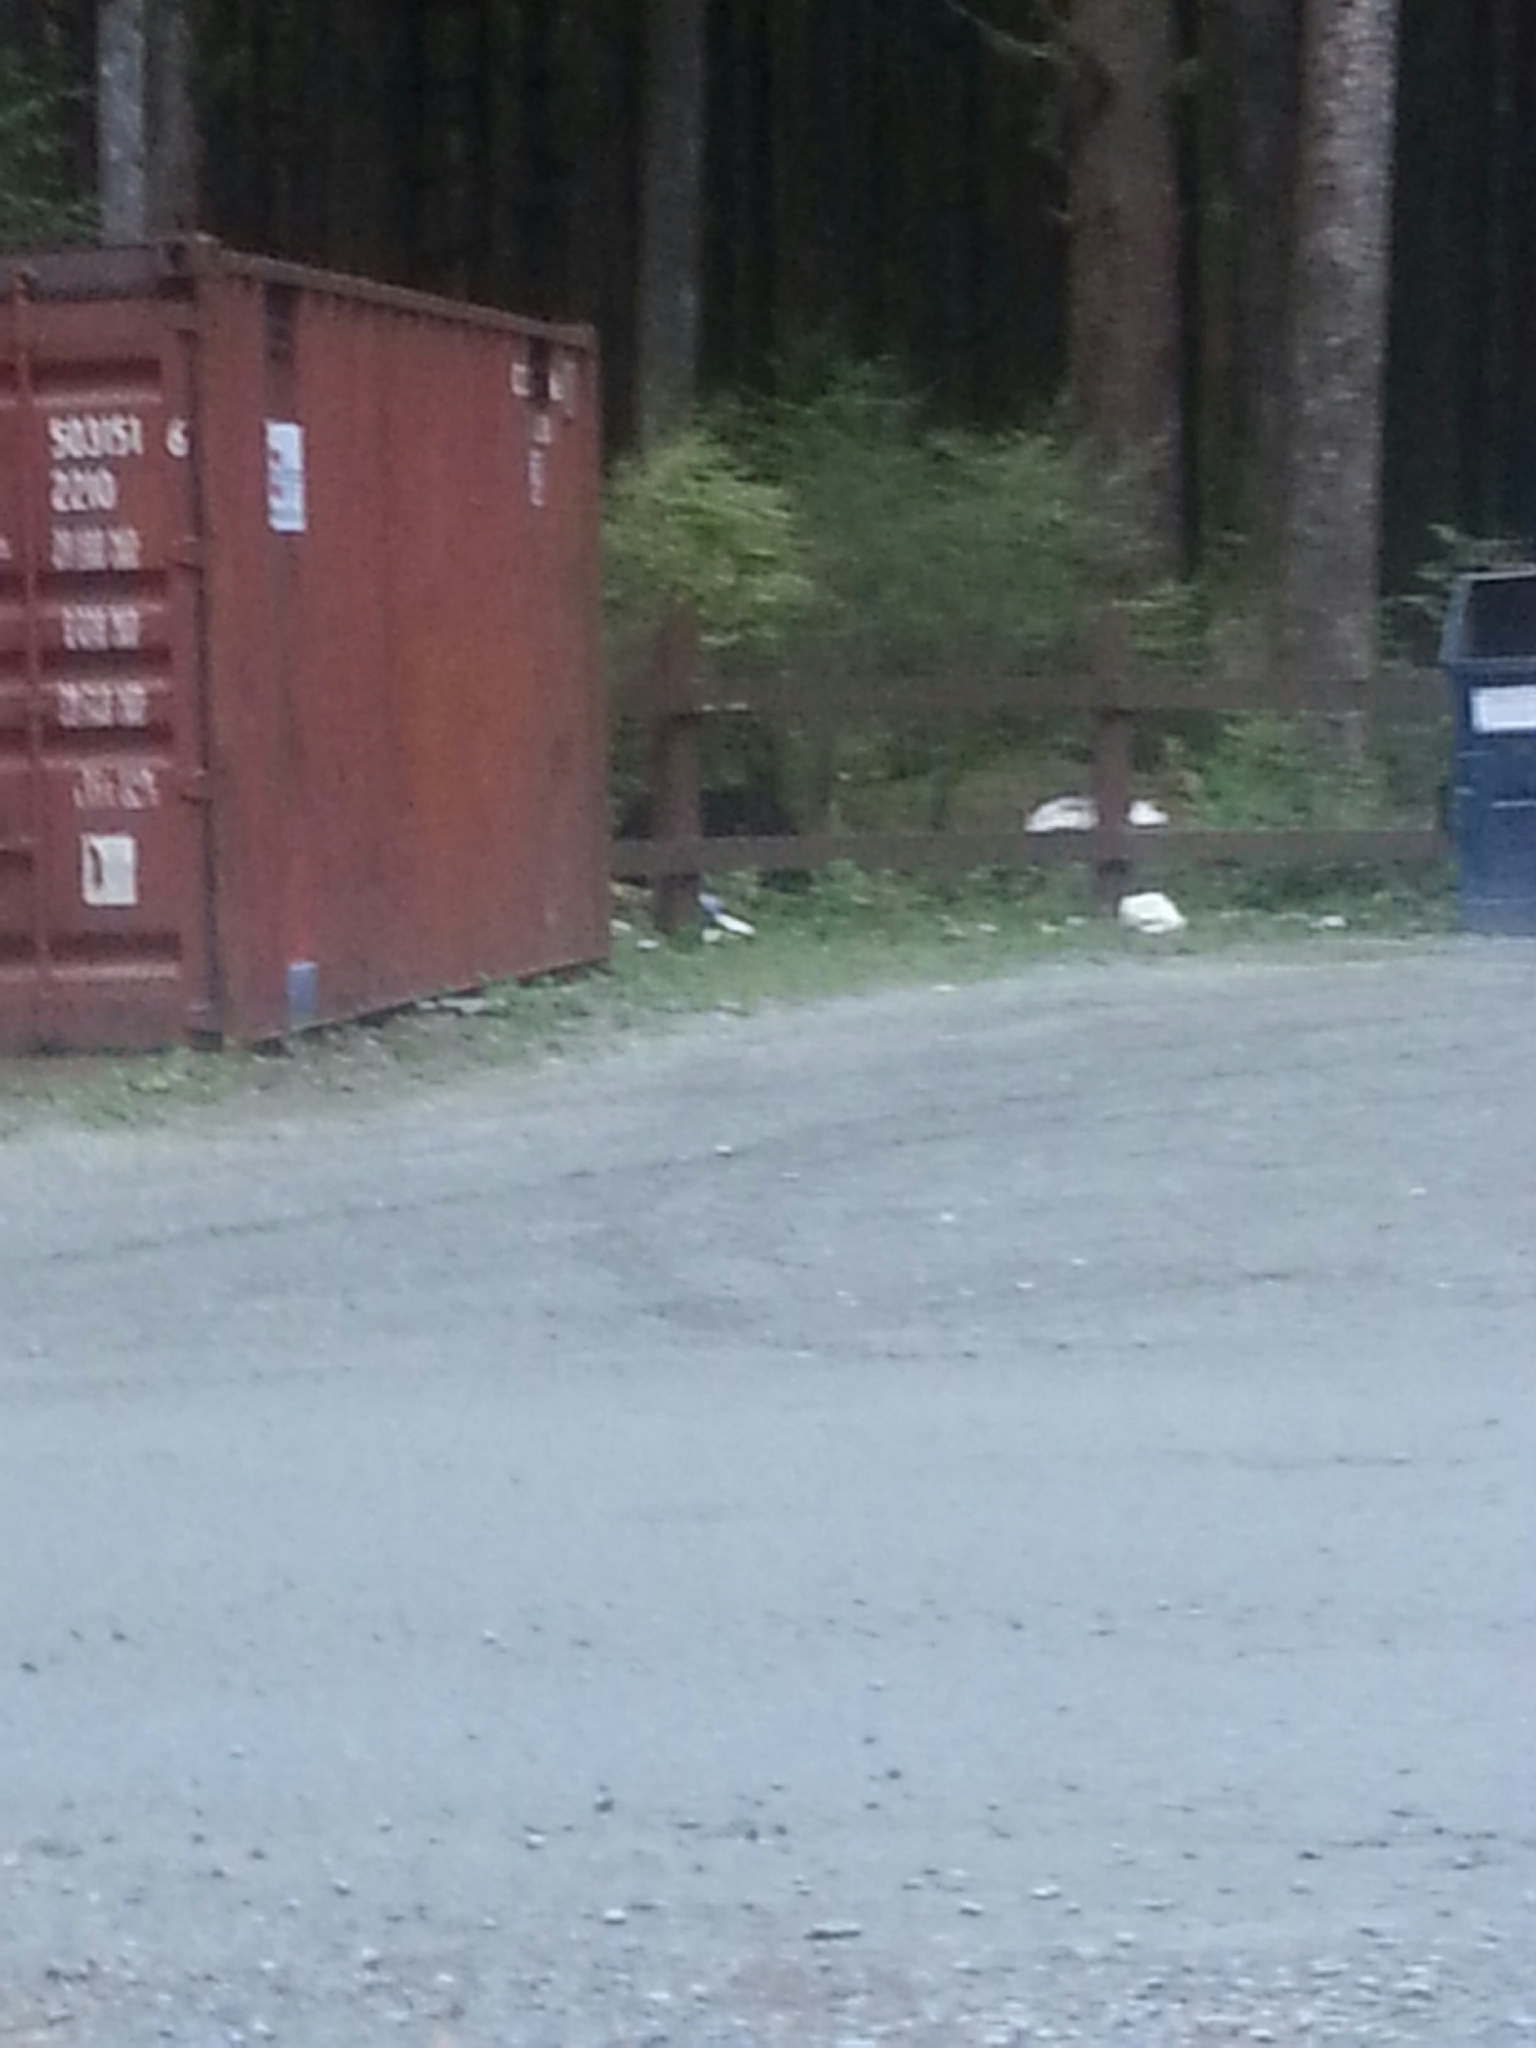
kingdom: Animalia
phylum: Chordata
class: Mammalia
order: Carnivora
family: Ursidae
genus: Ursus
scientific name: Ursus americanus
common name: American black bear
